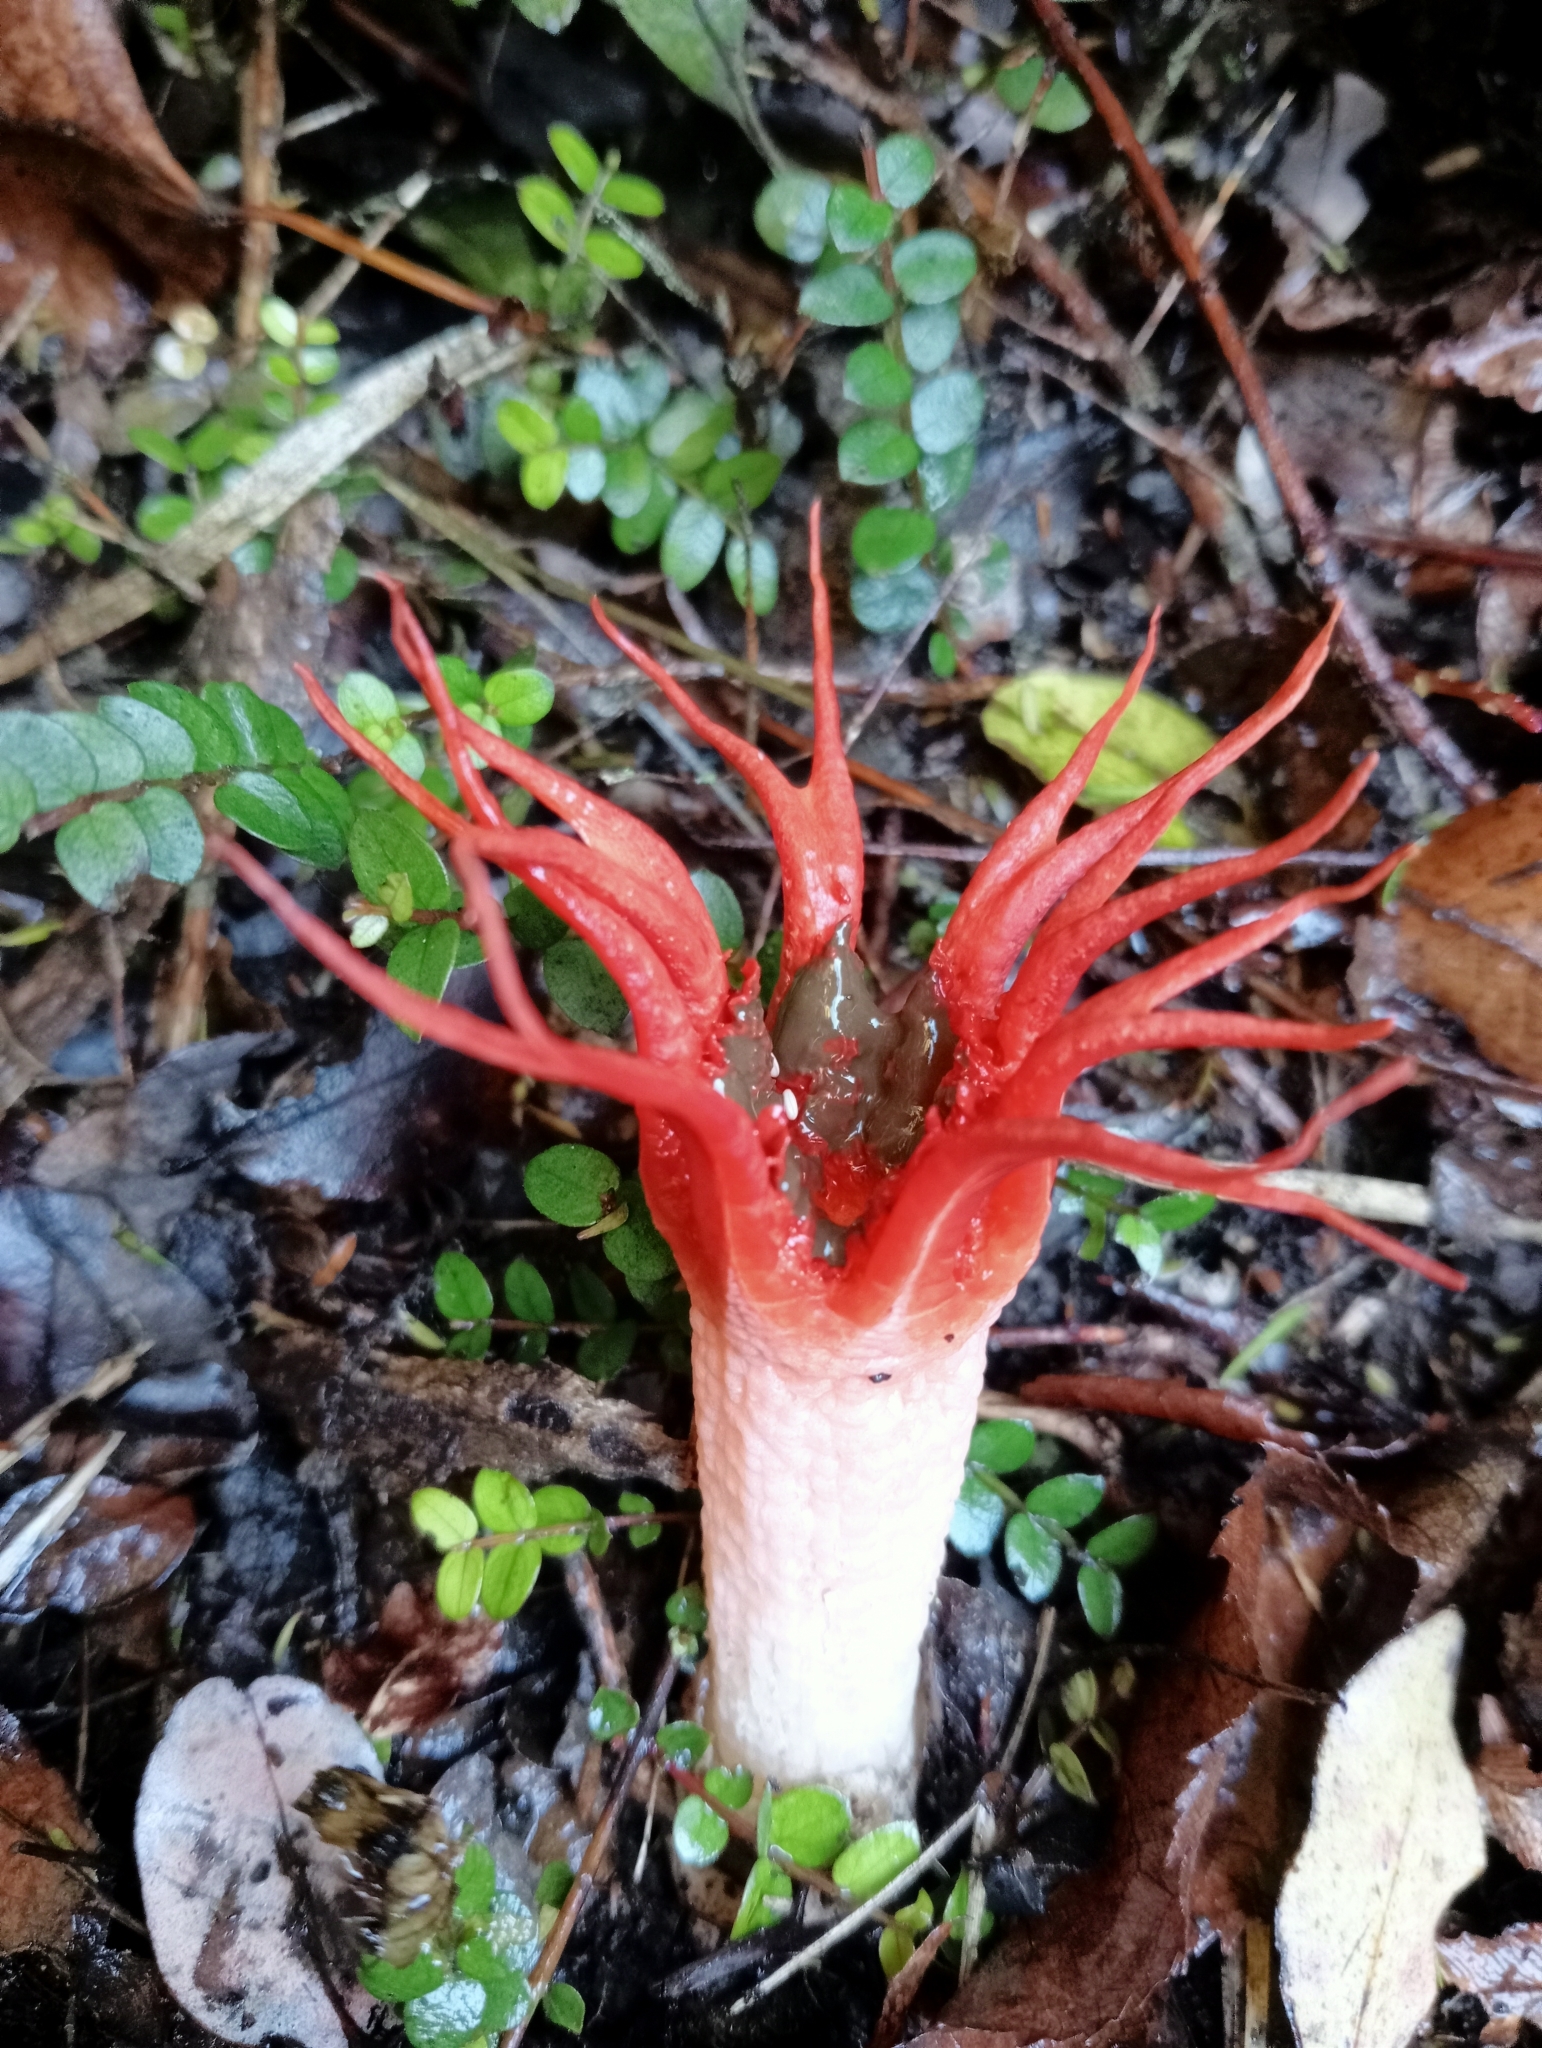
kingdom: Fungi
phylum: Basidiomycota
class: Agaricomycetes
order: Phallales
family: Phallaceae
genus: Aseroe
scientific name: Aseroe rubra
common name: Starfish fungus
